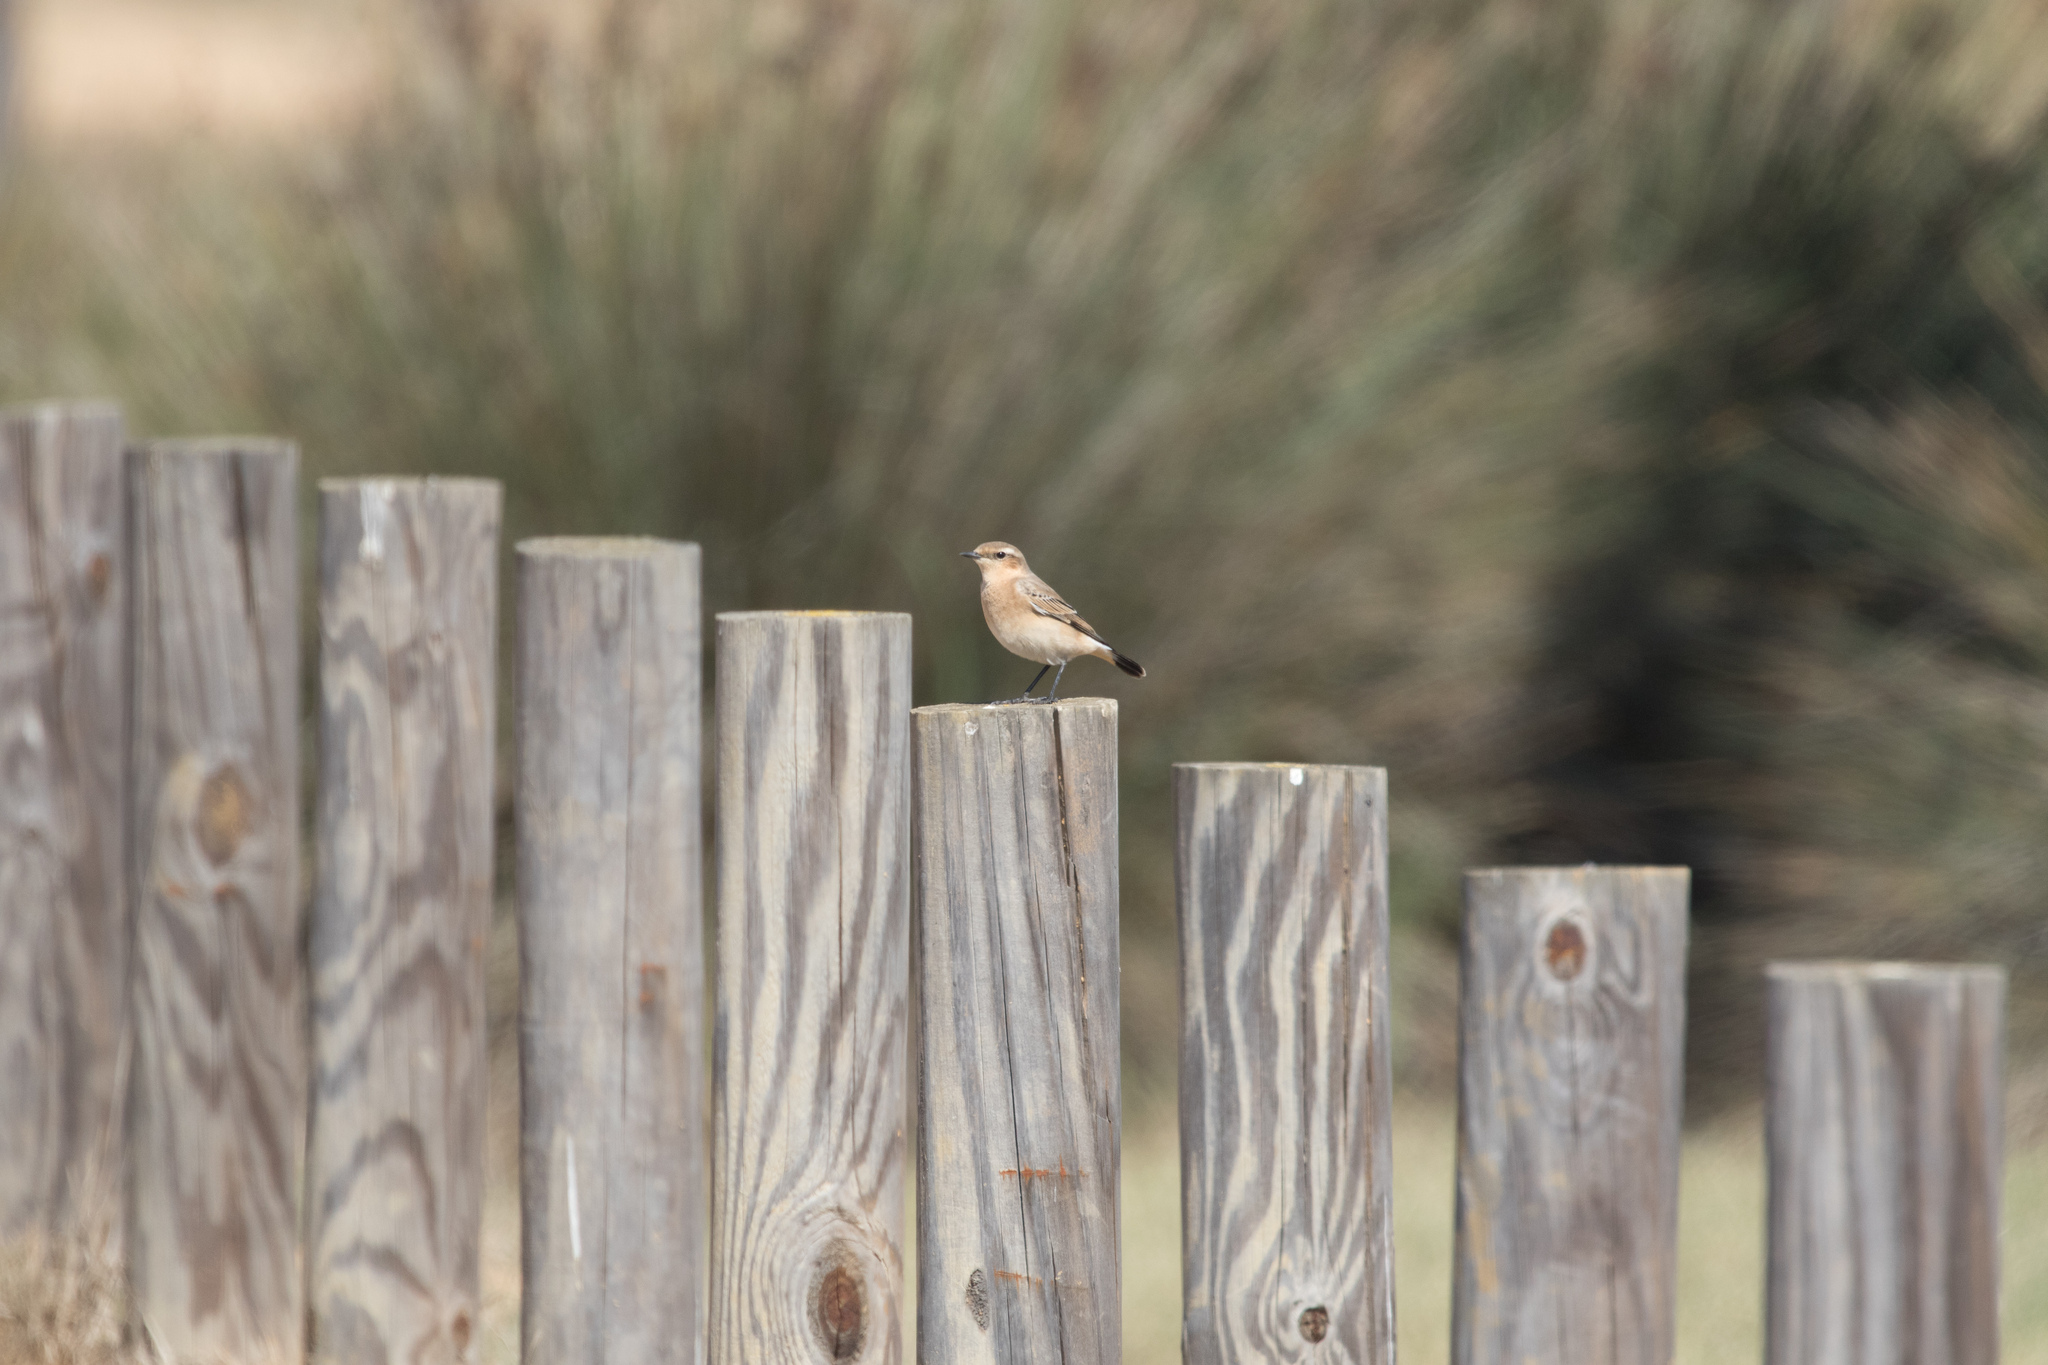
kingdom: Animalia
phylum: Chordata
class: Aves
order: Passeriformes
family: Muscicapidae
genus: Oenanthe
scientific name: Oenanthe oenanthe
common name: Northern wheatear
